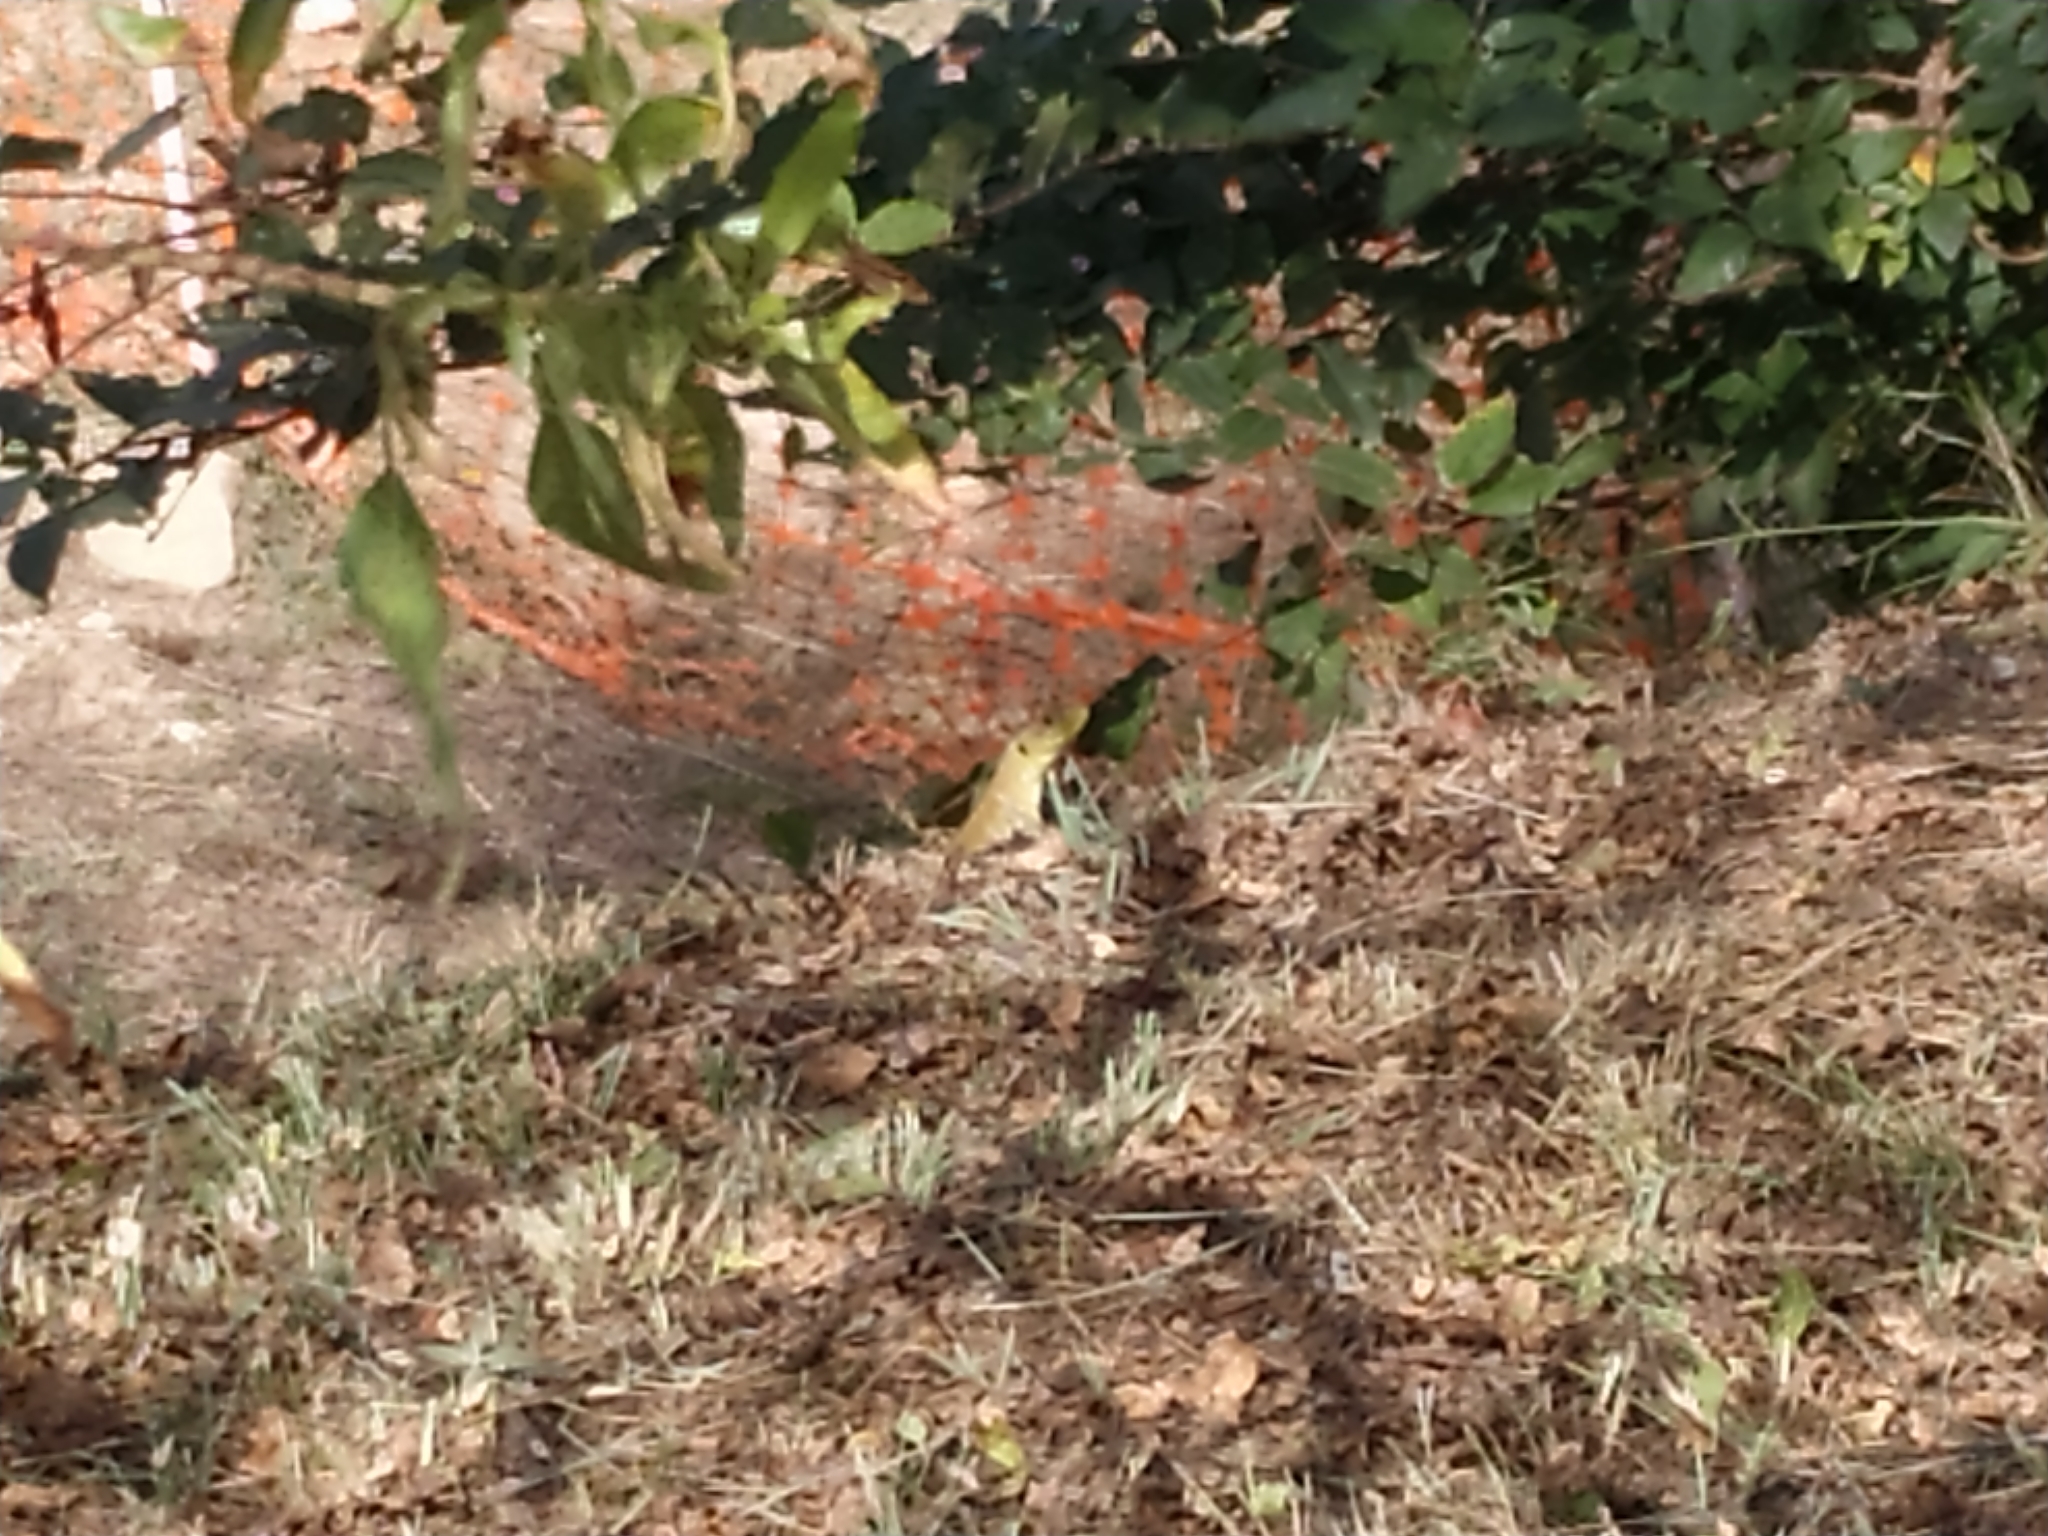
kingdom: Animalia
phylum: Chordata
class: Squamata
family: Lacertidae
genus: Timon
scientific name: Timon lepidus
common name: Ocellated lizard
